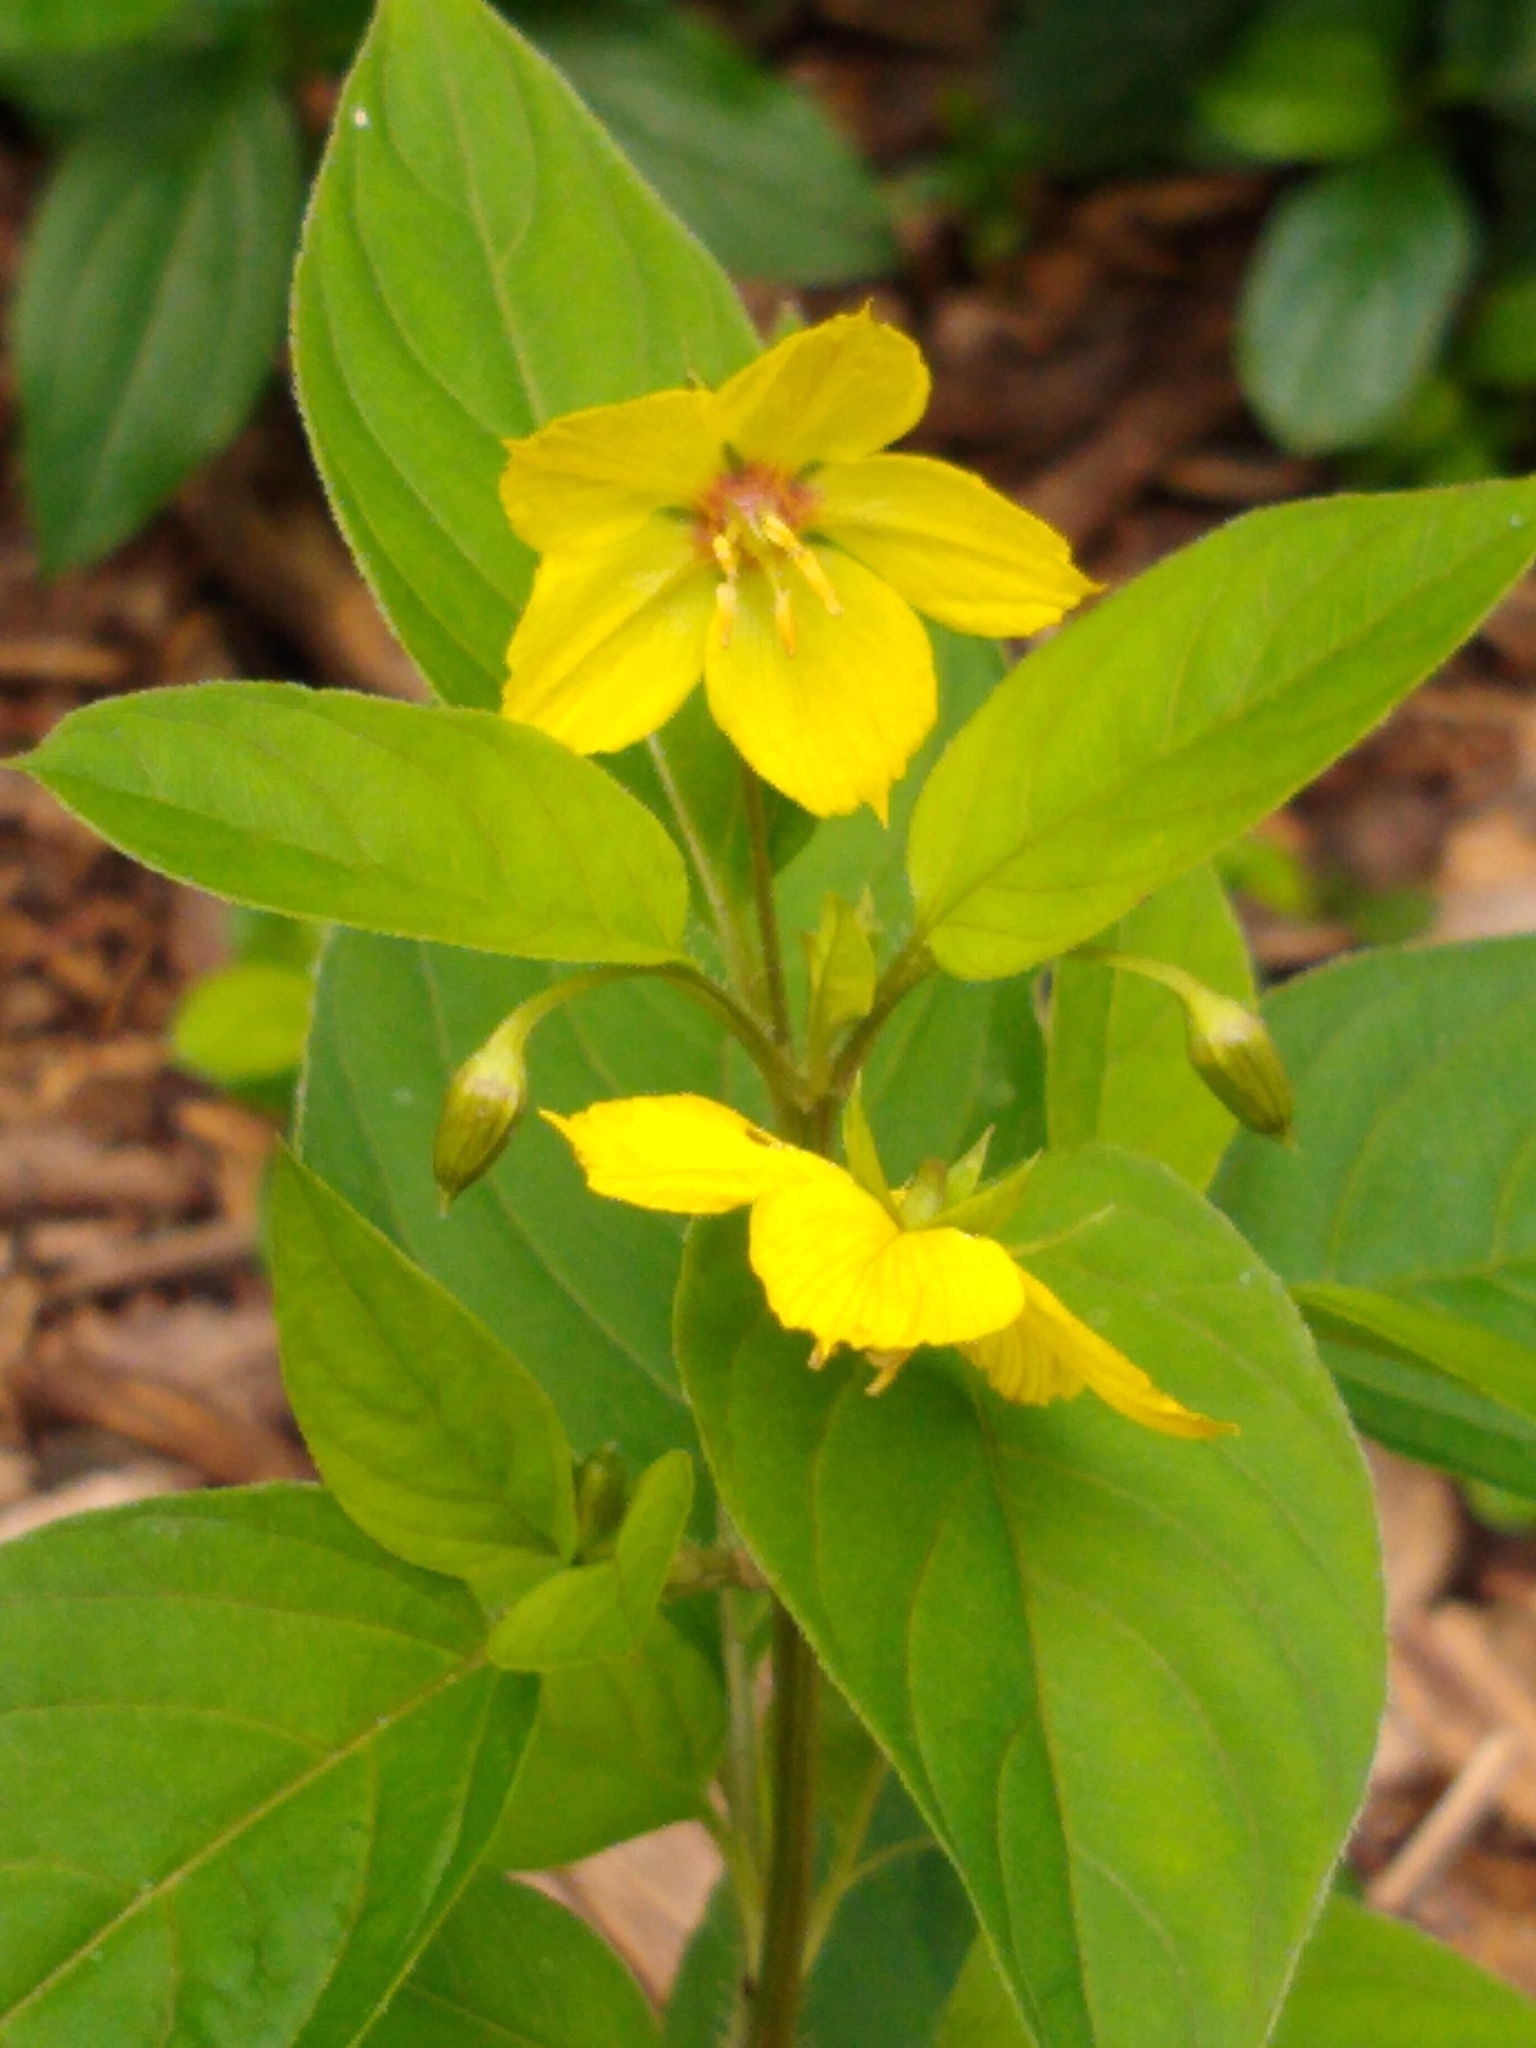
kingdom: Plantae
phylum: Tracheophyta
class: Magnoliopsida
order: Ericales
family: Primulaceae
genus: Lysimachia
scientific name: Lysimachia ciliata
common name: Fringed loosestrife
